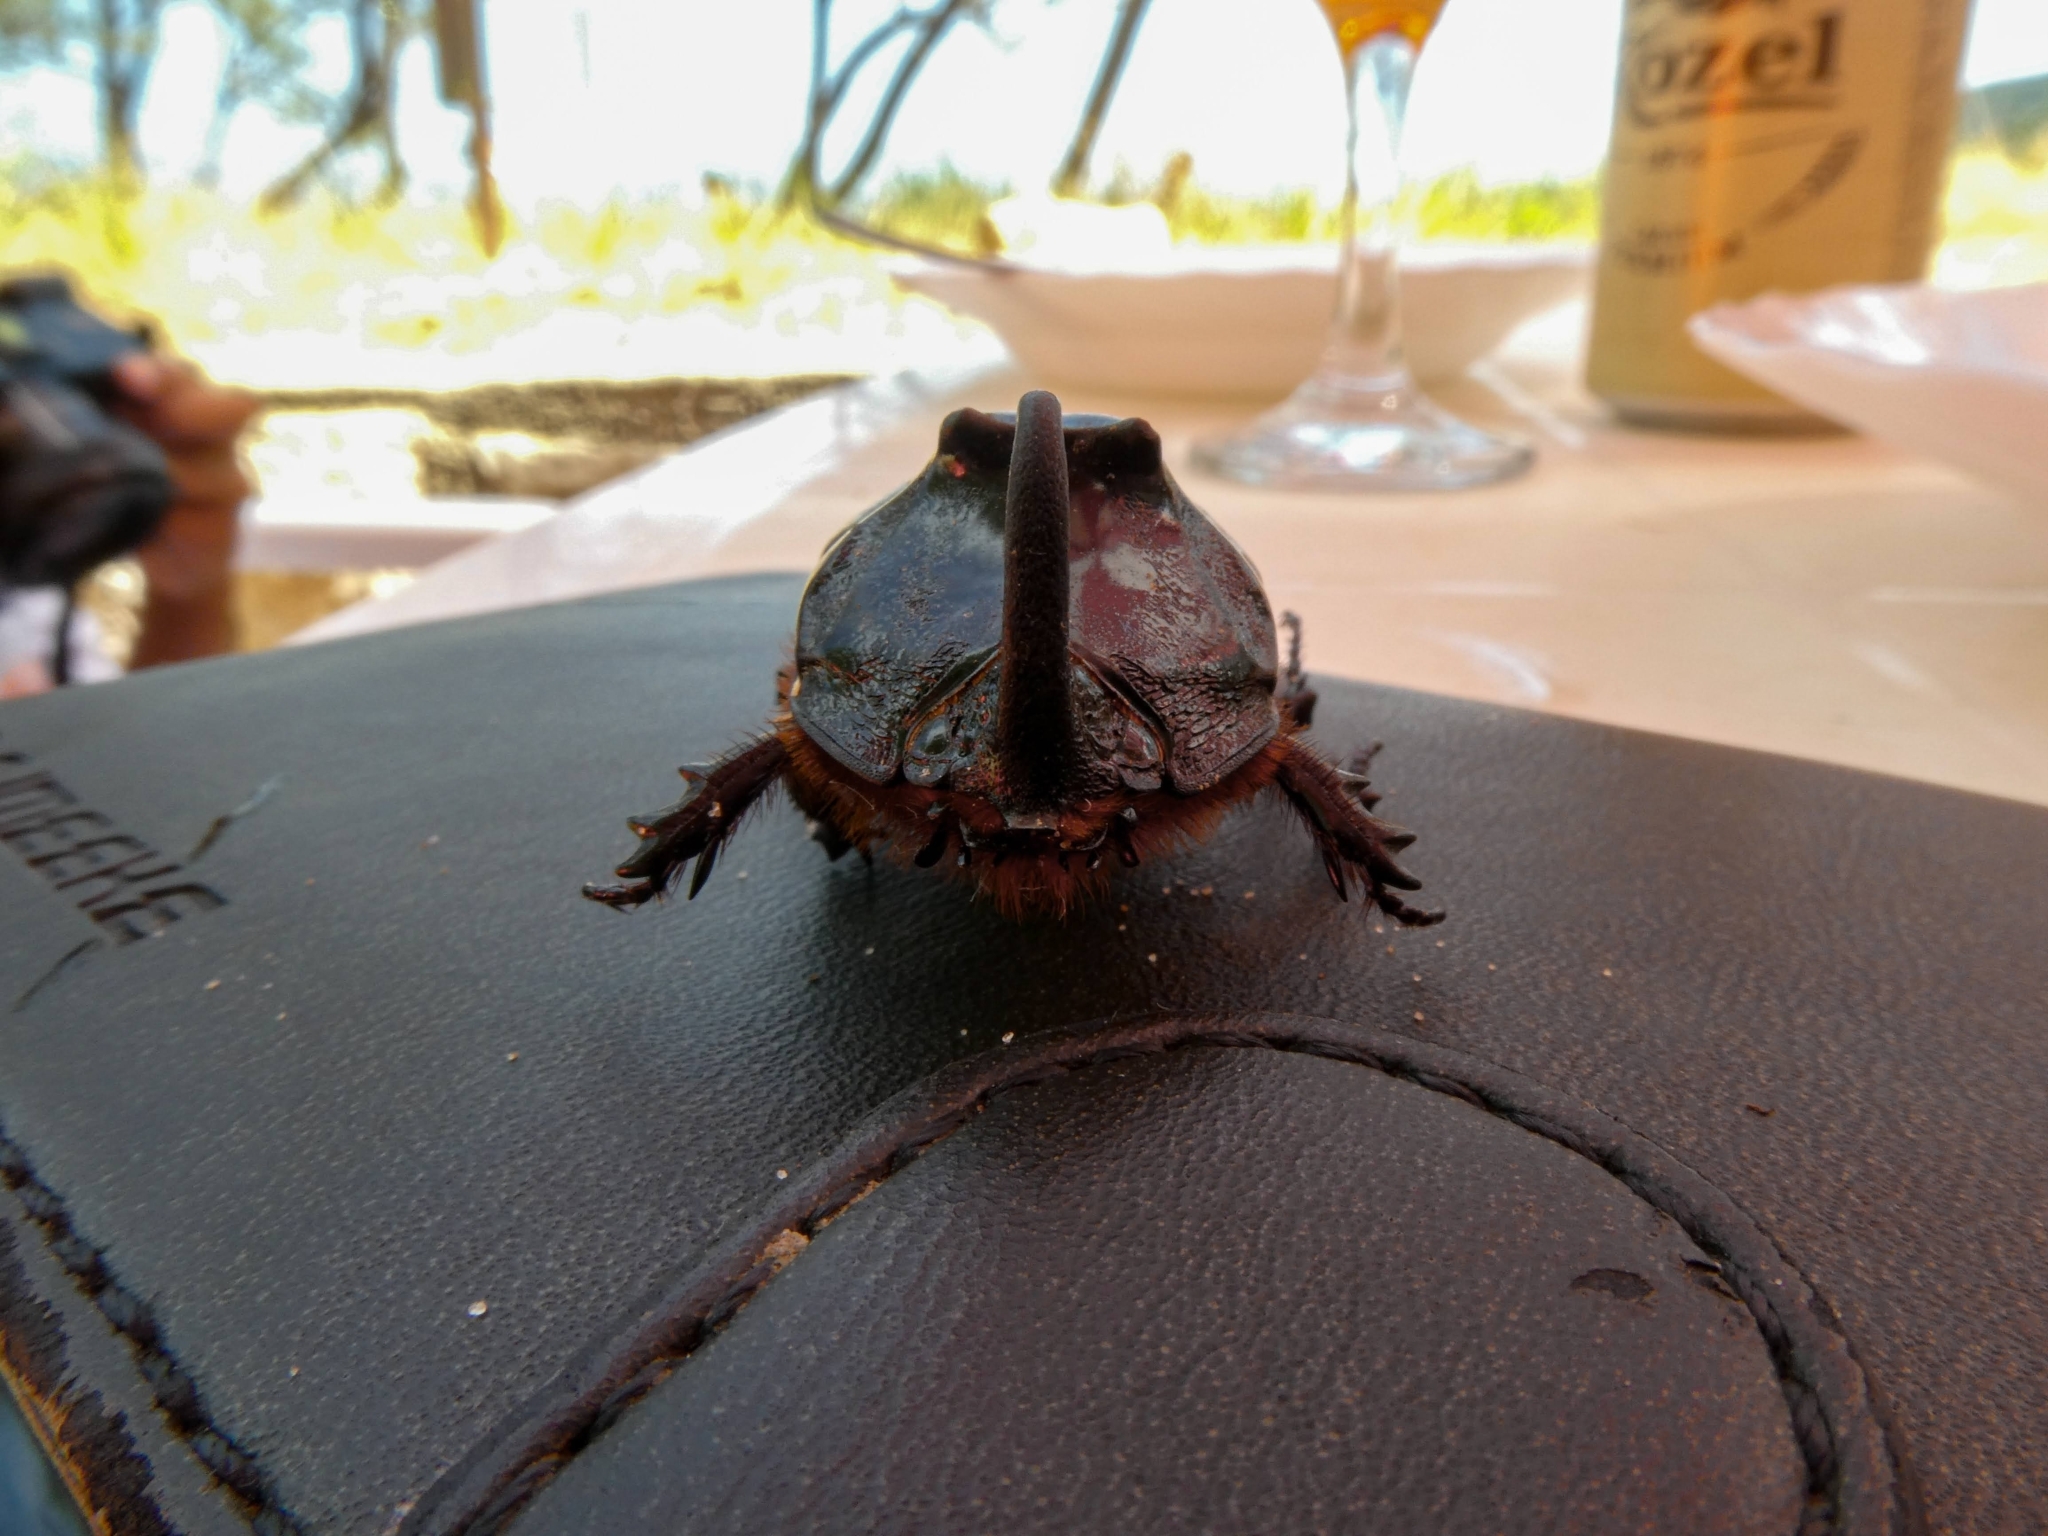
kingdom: Animalia
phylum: Arthropoda
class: Insecta
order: Coleoptera
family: Scarabaeidae
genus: Oryctes
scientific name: Oryctes nasicornis
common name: European rhinoceros beetle
